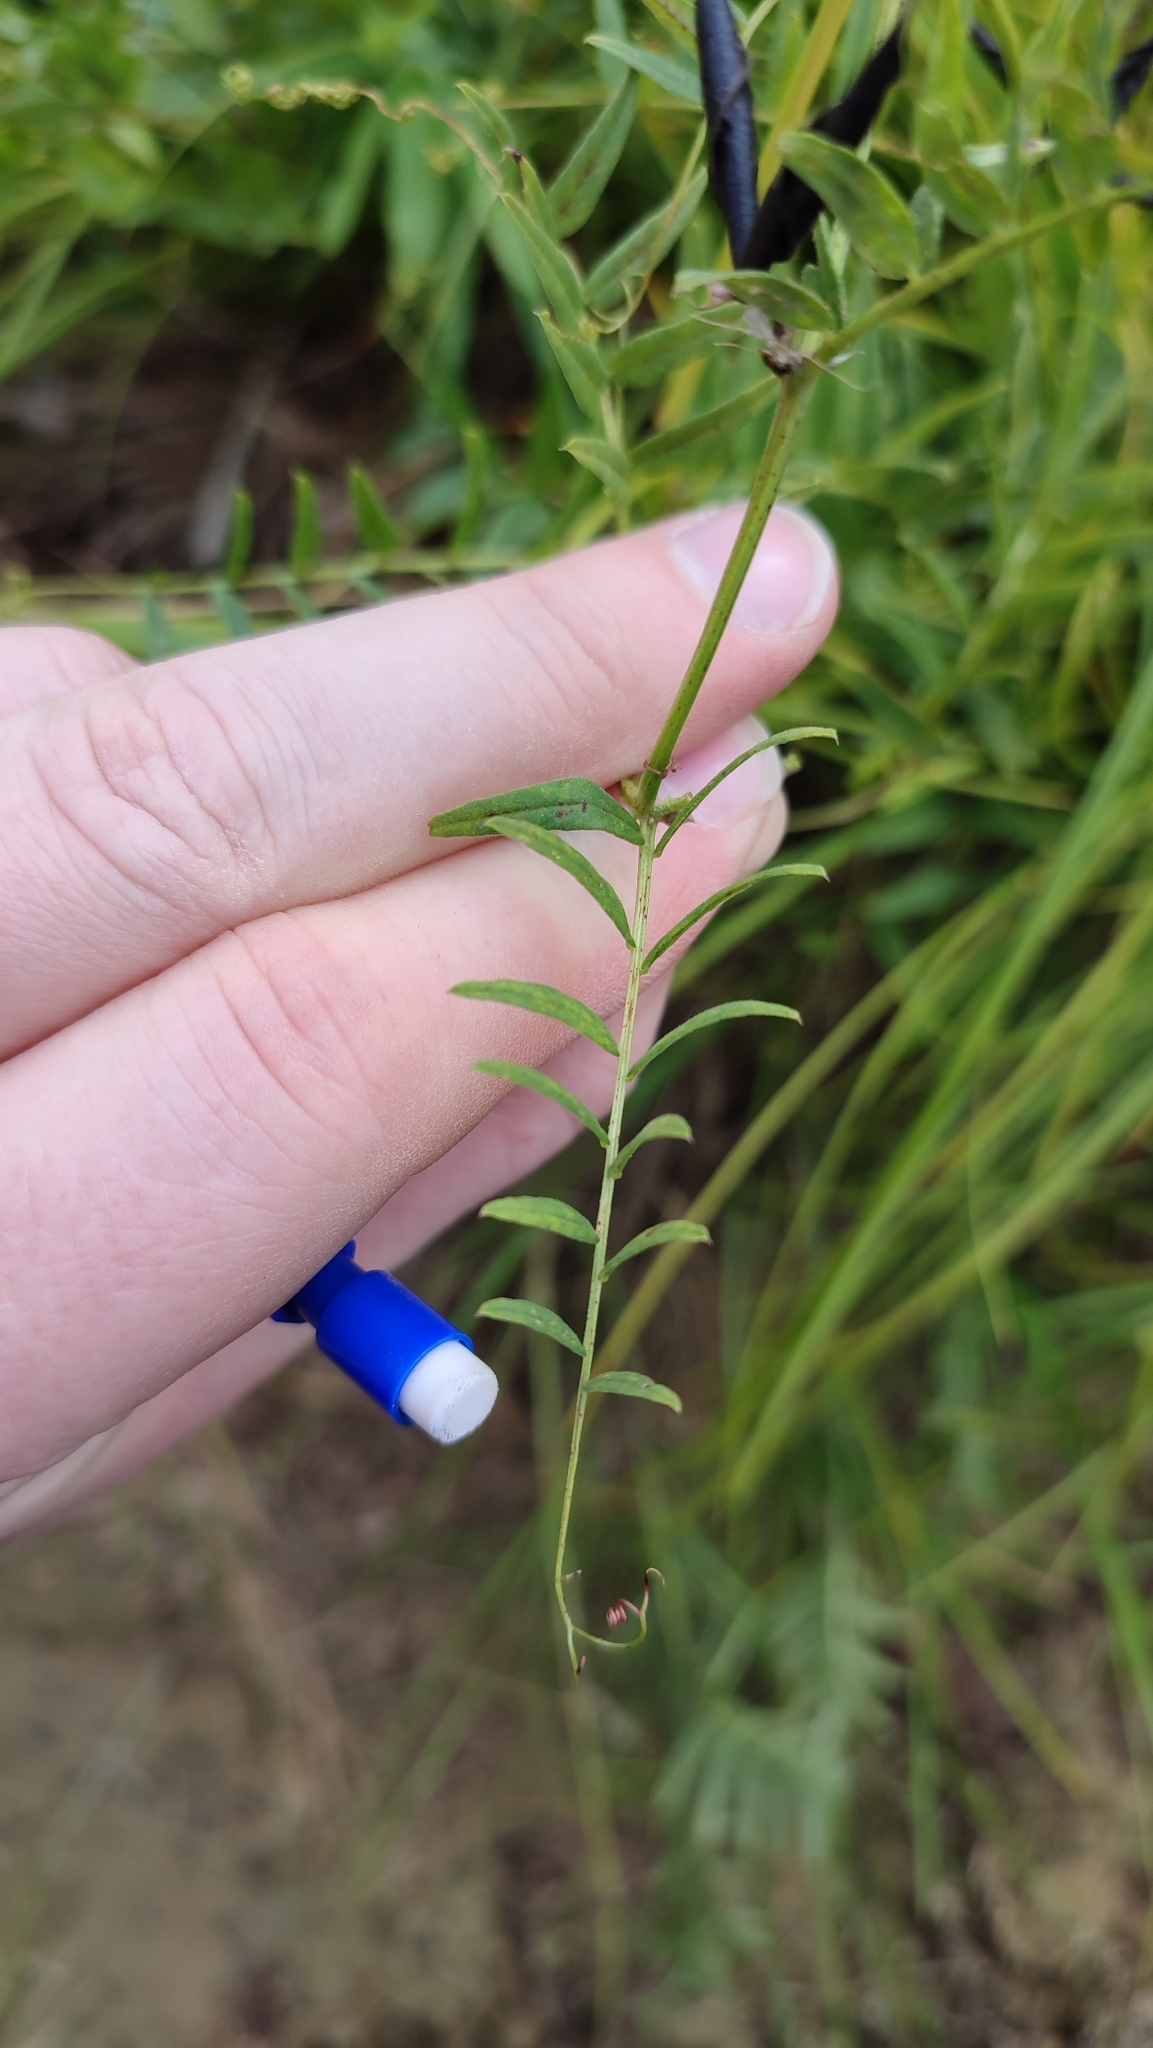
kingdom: Plantae
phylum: Tracheophyta
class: Magnoliopsida
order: Fabales
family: Fabaceae
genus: Vicia
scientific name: Vicia sepium
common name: Bush vetch
